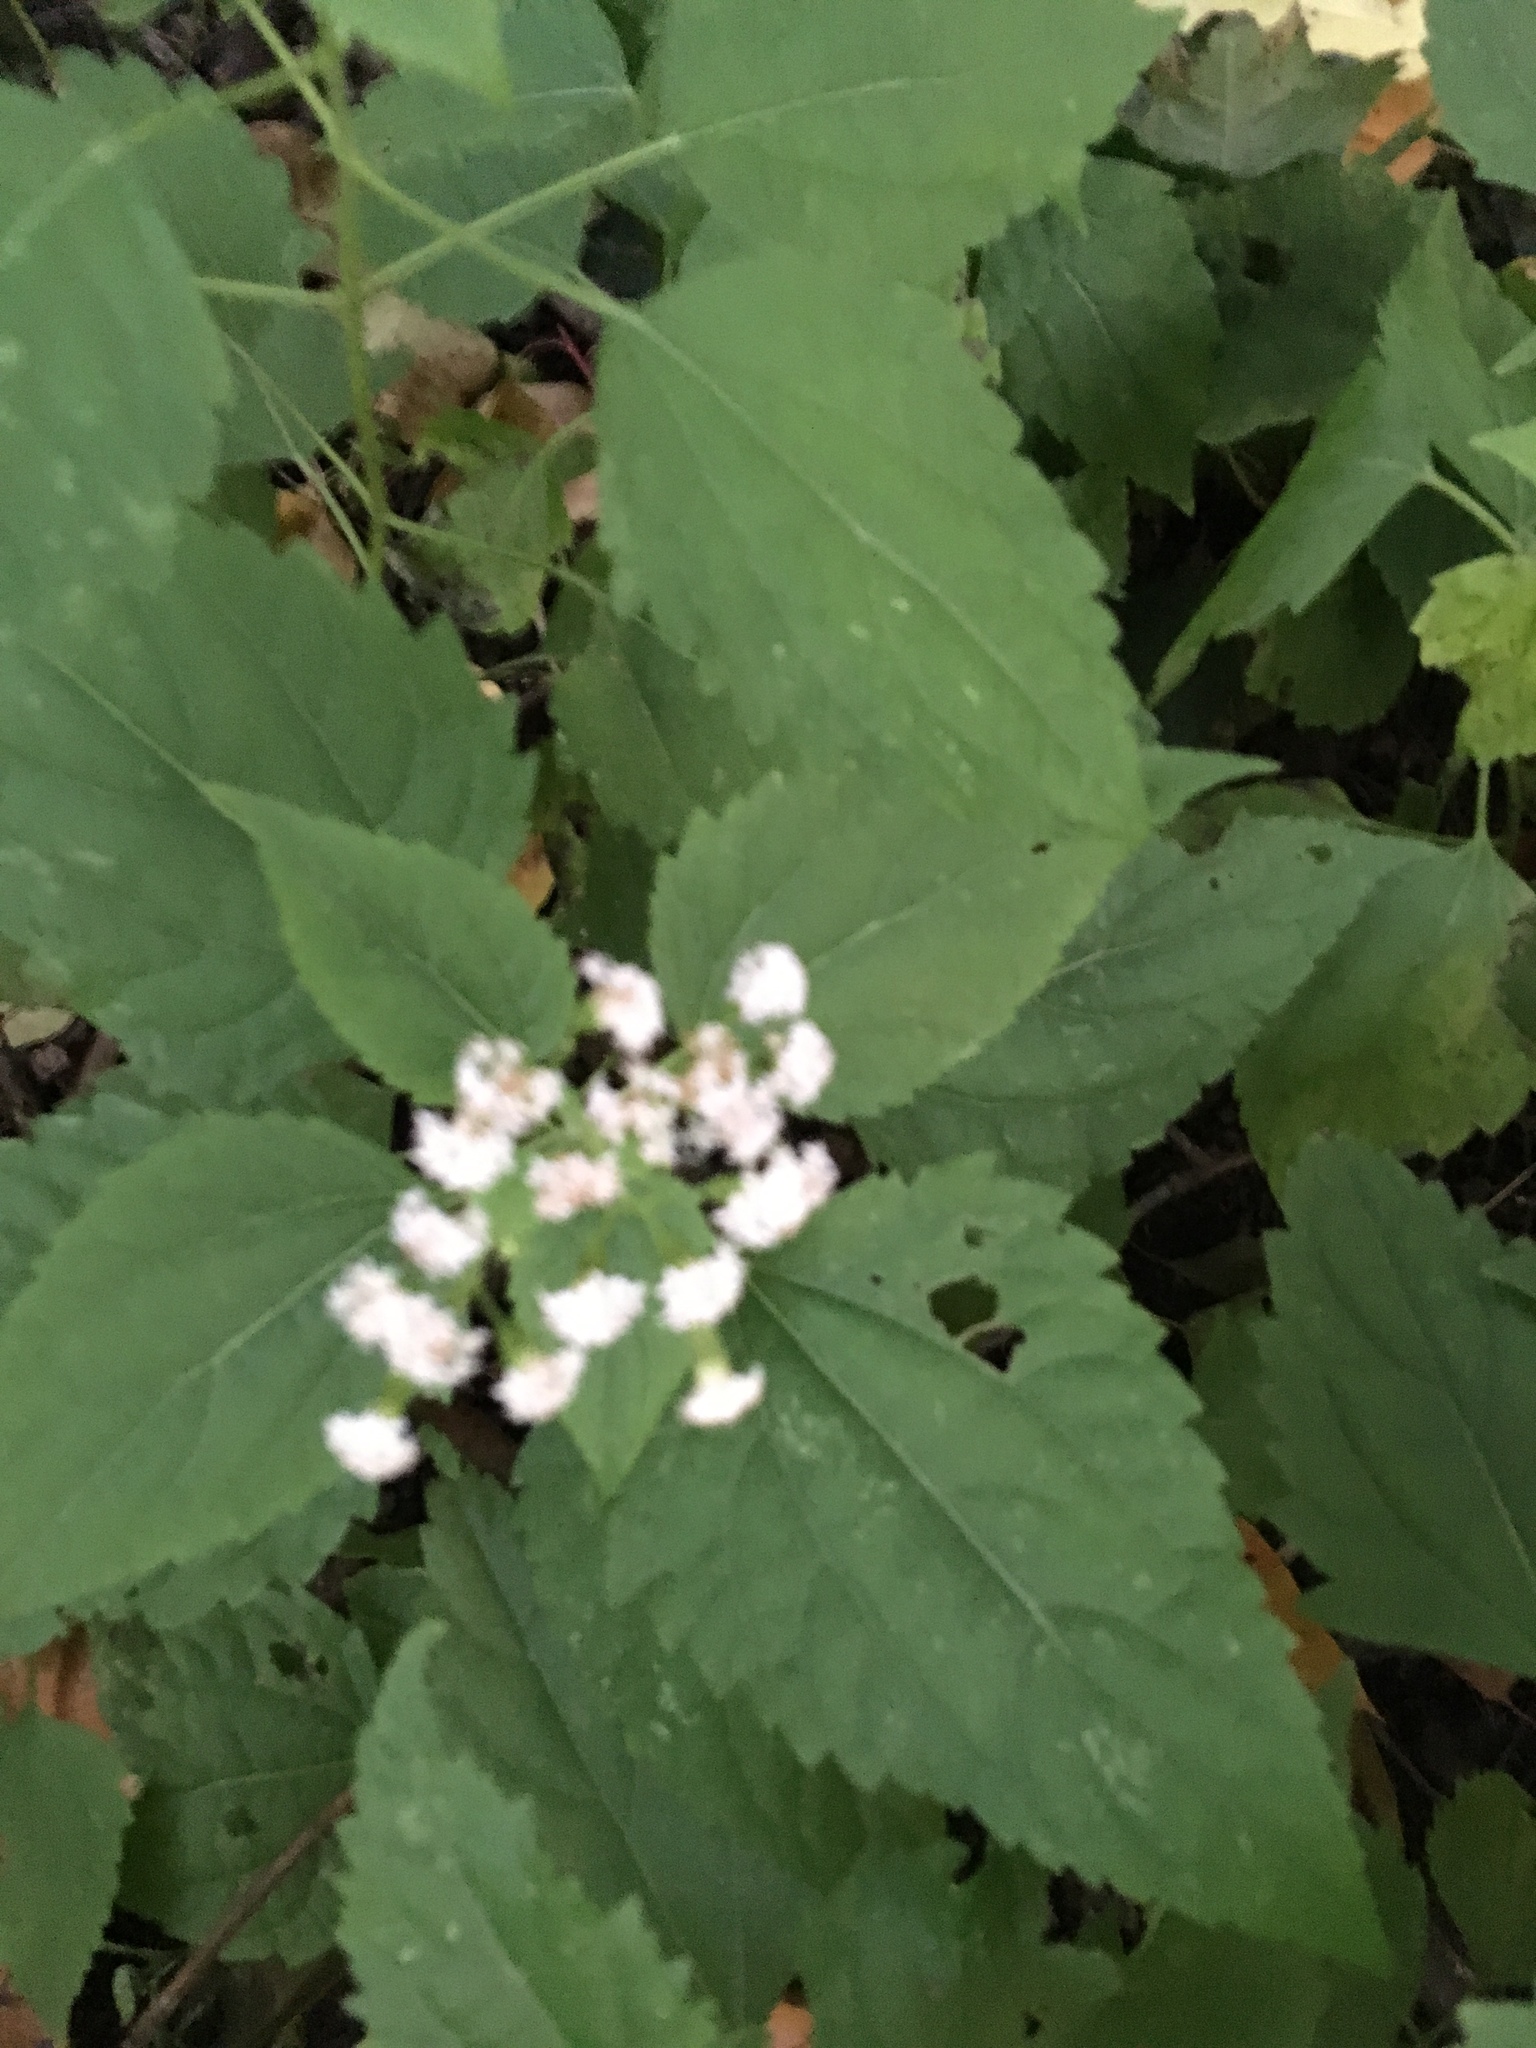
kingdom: Plantae
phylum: Tracheophyta
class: Magnoliopsida
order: Asterales
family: Asteraceae
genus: Ageratina
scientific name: Ageratina altissima
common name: White snakeroot
